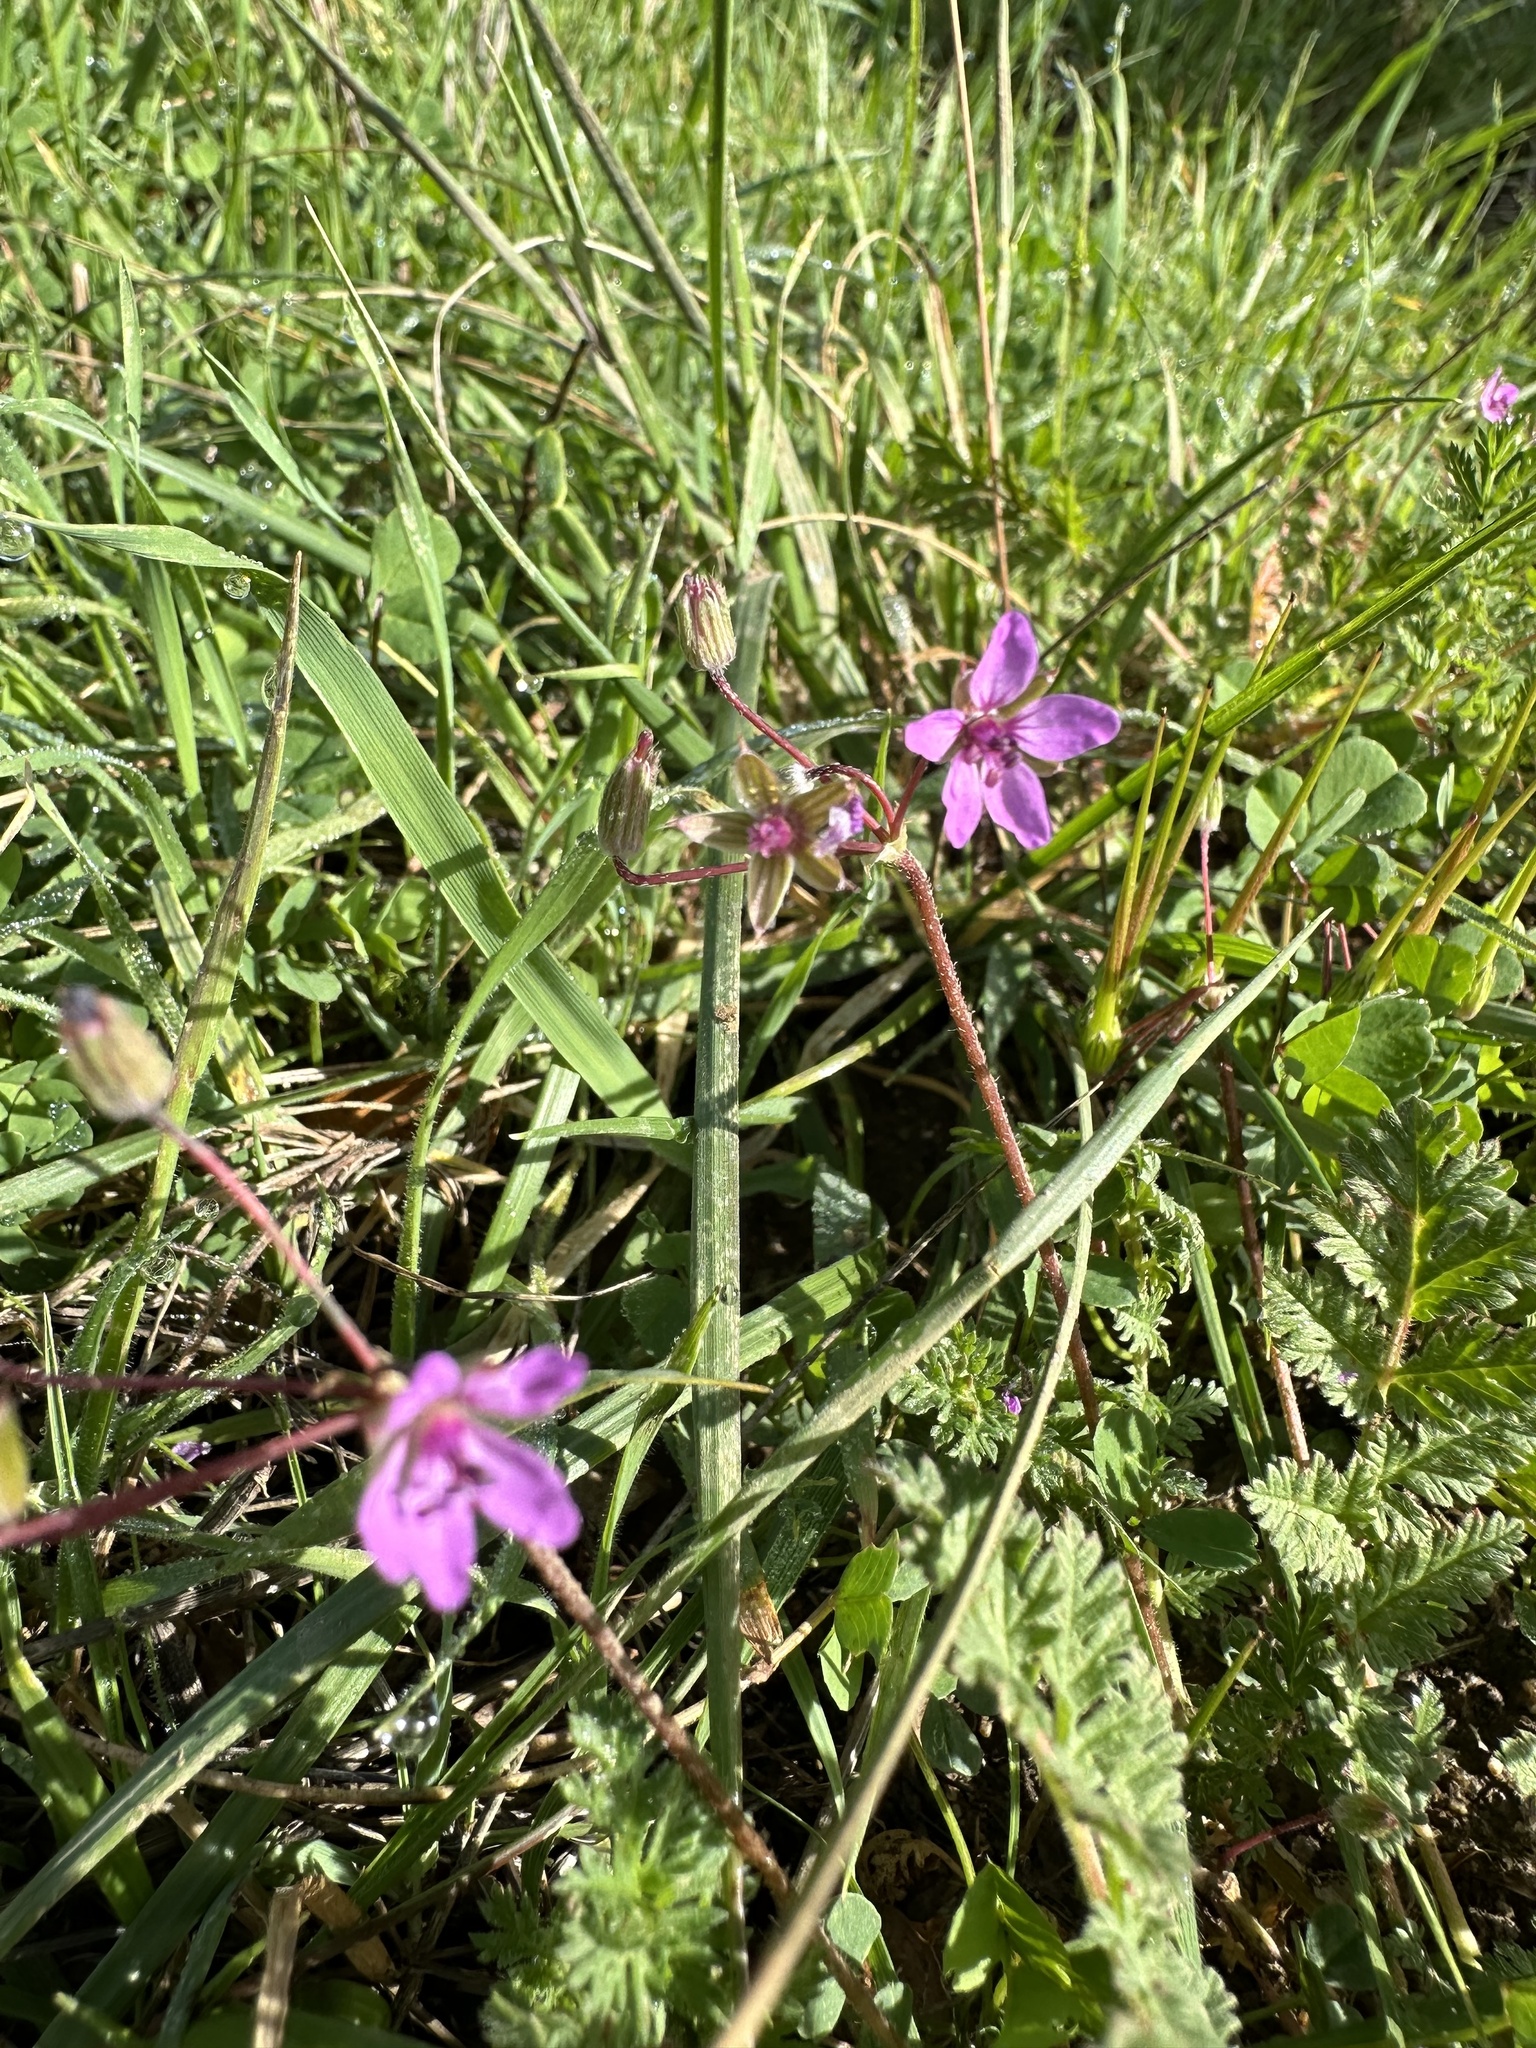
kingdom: Plantae
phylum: Tracheophyta
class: Magnoliopsida
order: Geraniales
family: Geraniaceae
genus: Erodium
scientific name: Erodium cicutarium
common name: Common stork's-bill
